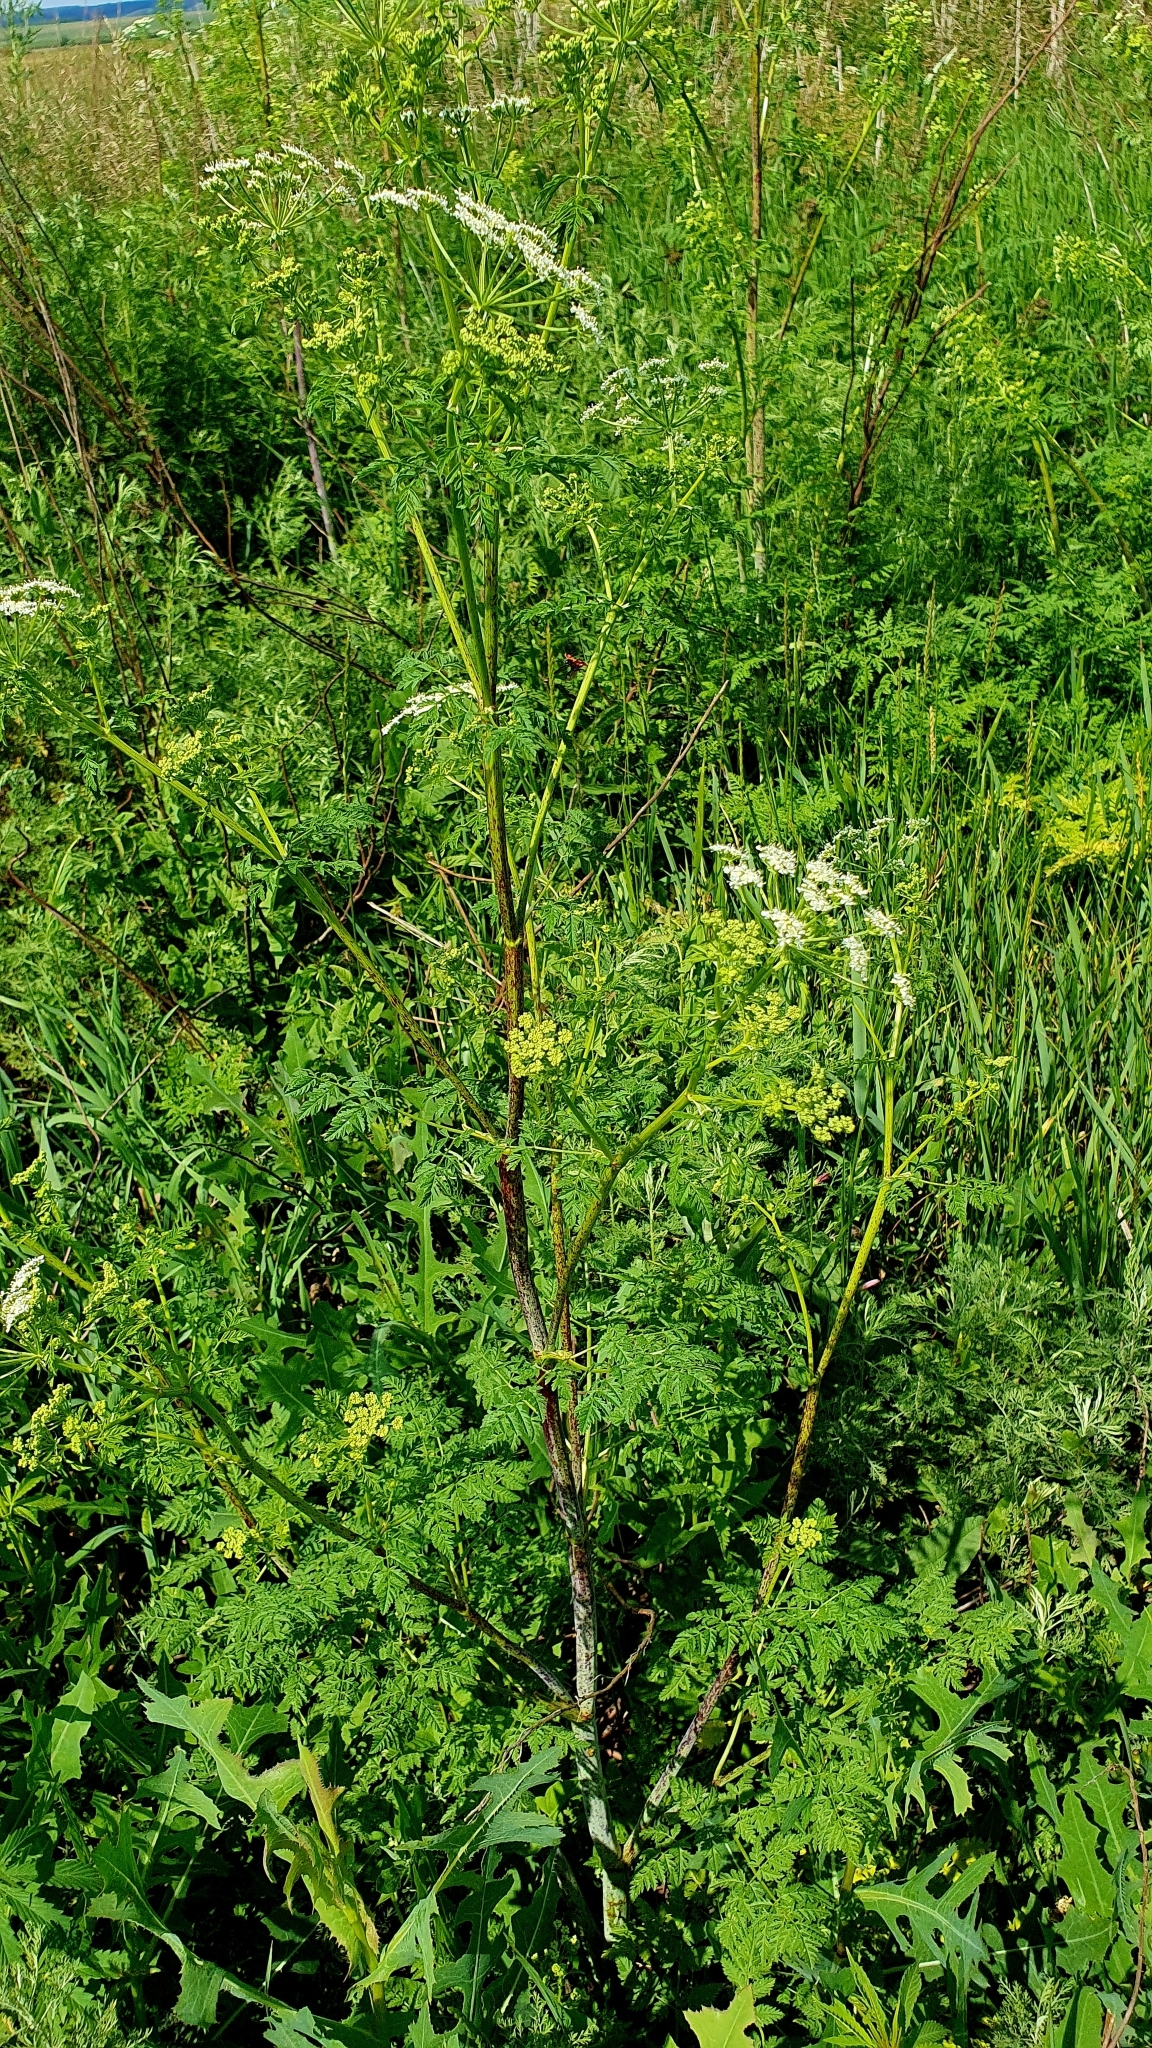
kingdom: Plantae
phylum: Tracheophyta
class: Magnoliopsida
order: Apiales
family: Apiaceae
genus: Conium
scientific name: Conium maculatum
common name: Hemlock
